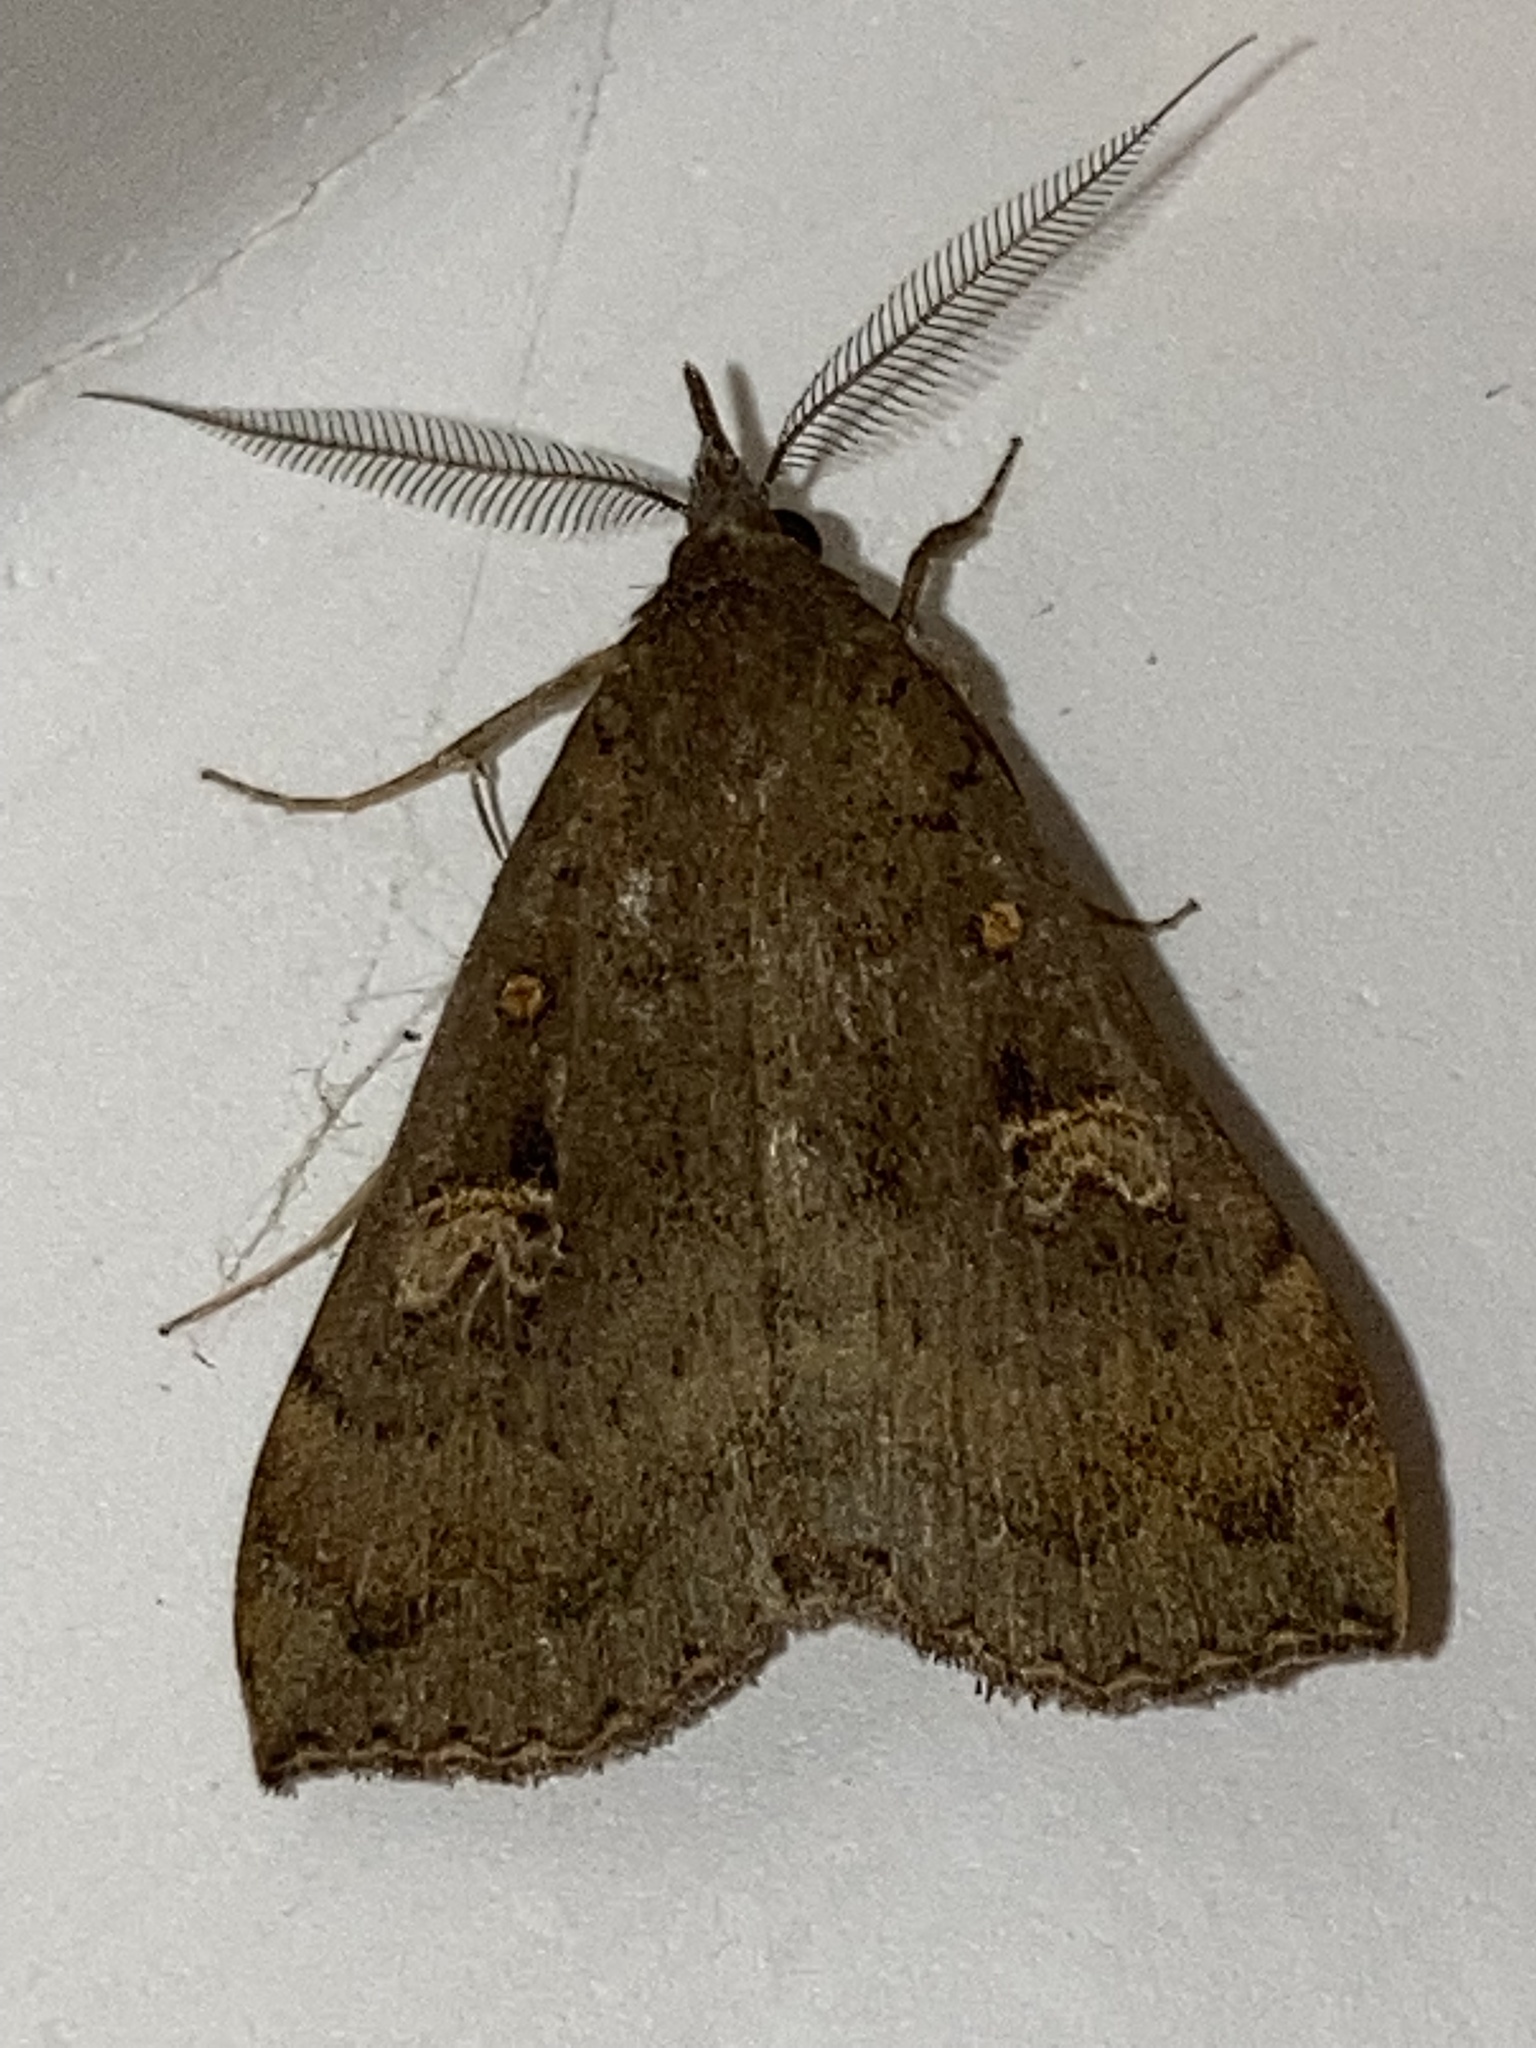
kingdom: Animalia
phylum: Arthropoda
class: Insecta
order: Lepidoptera
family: Erebidae
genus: Rhapsa
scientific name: Rhapsa scotosialis
